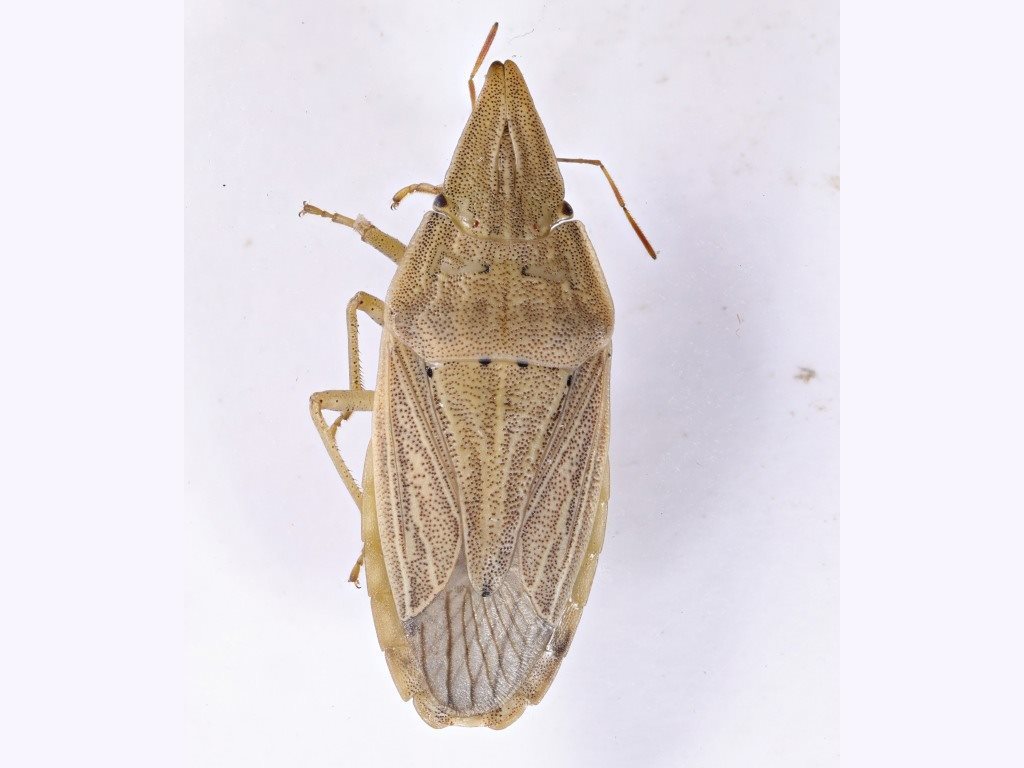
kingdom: Animalia
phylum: Arthropoda
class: Insecta
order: Hemiptera
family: Pentatomidae
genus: Menestheus
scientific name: Menestheus cuneatus
